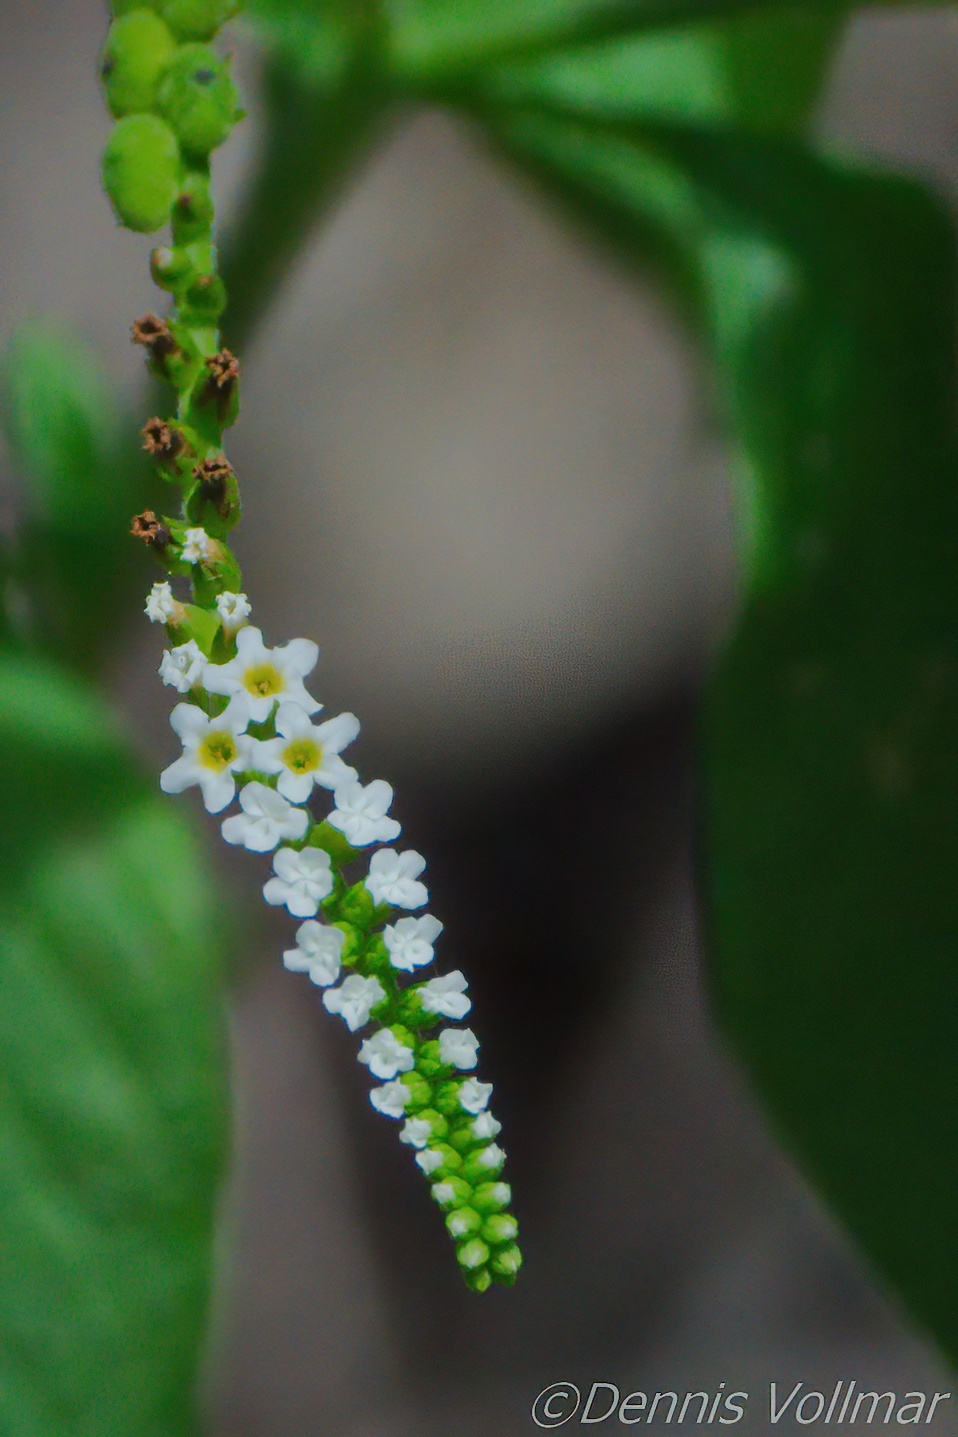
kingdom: Plantae
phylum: Tracheophyta
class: Magnoliopsida
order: Boraginales
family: Heliotropiaceae
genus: Heliotropium
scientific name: Heliotropium angiospermum
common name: Eye bright
